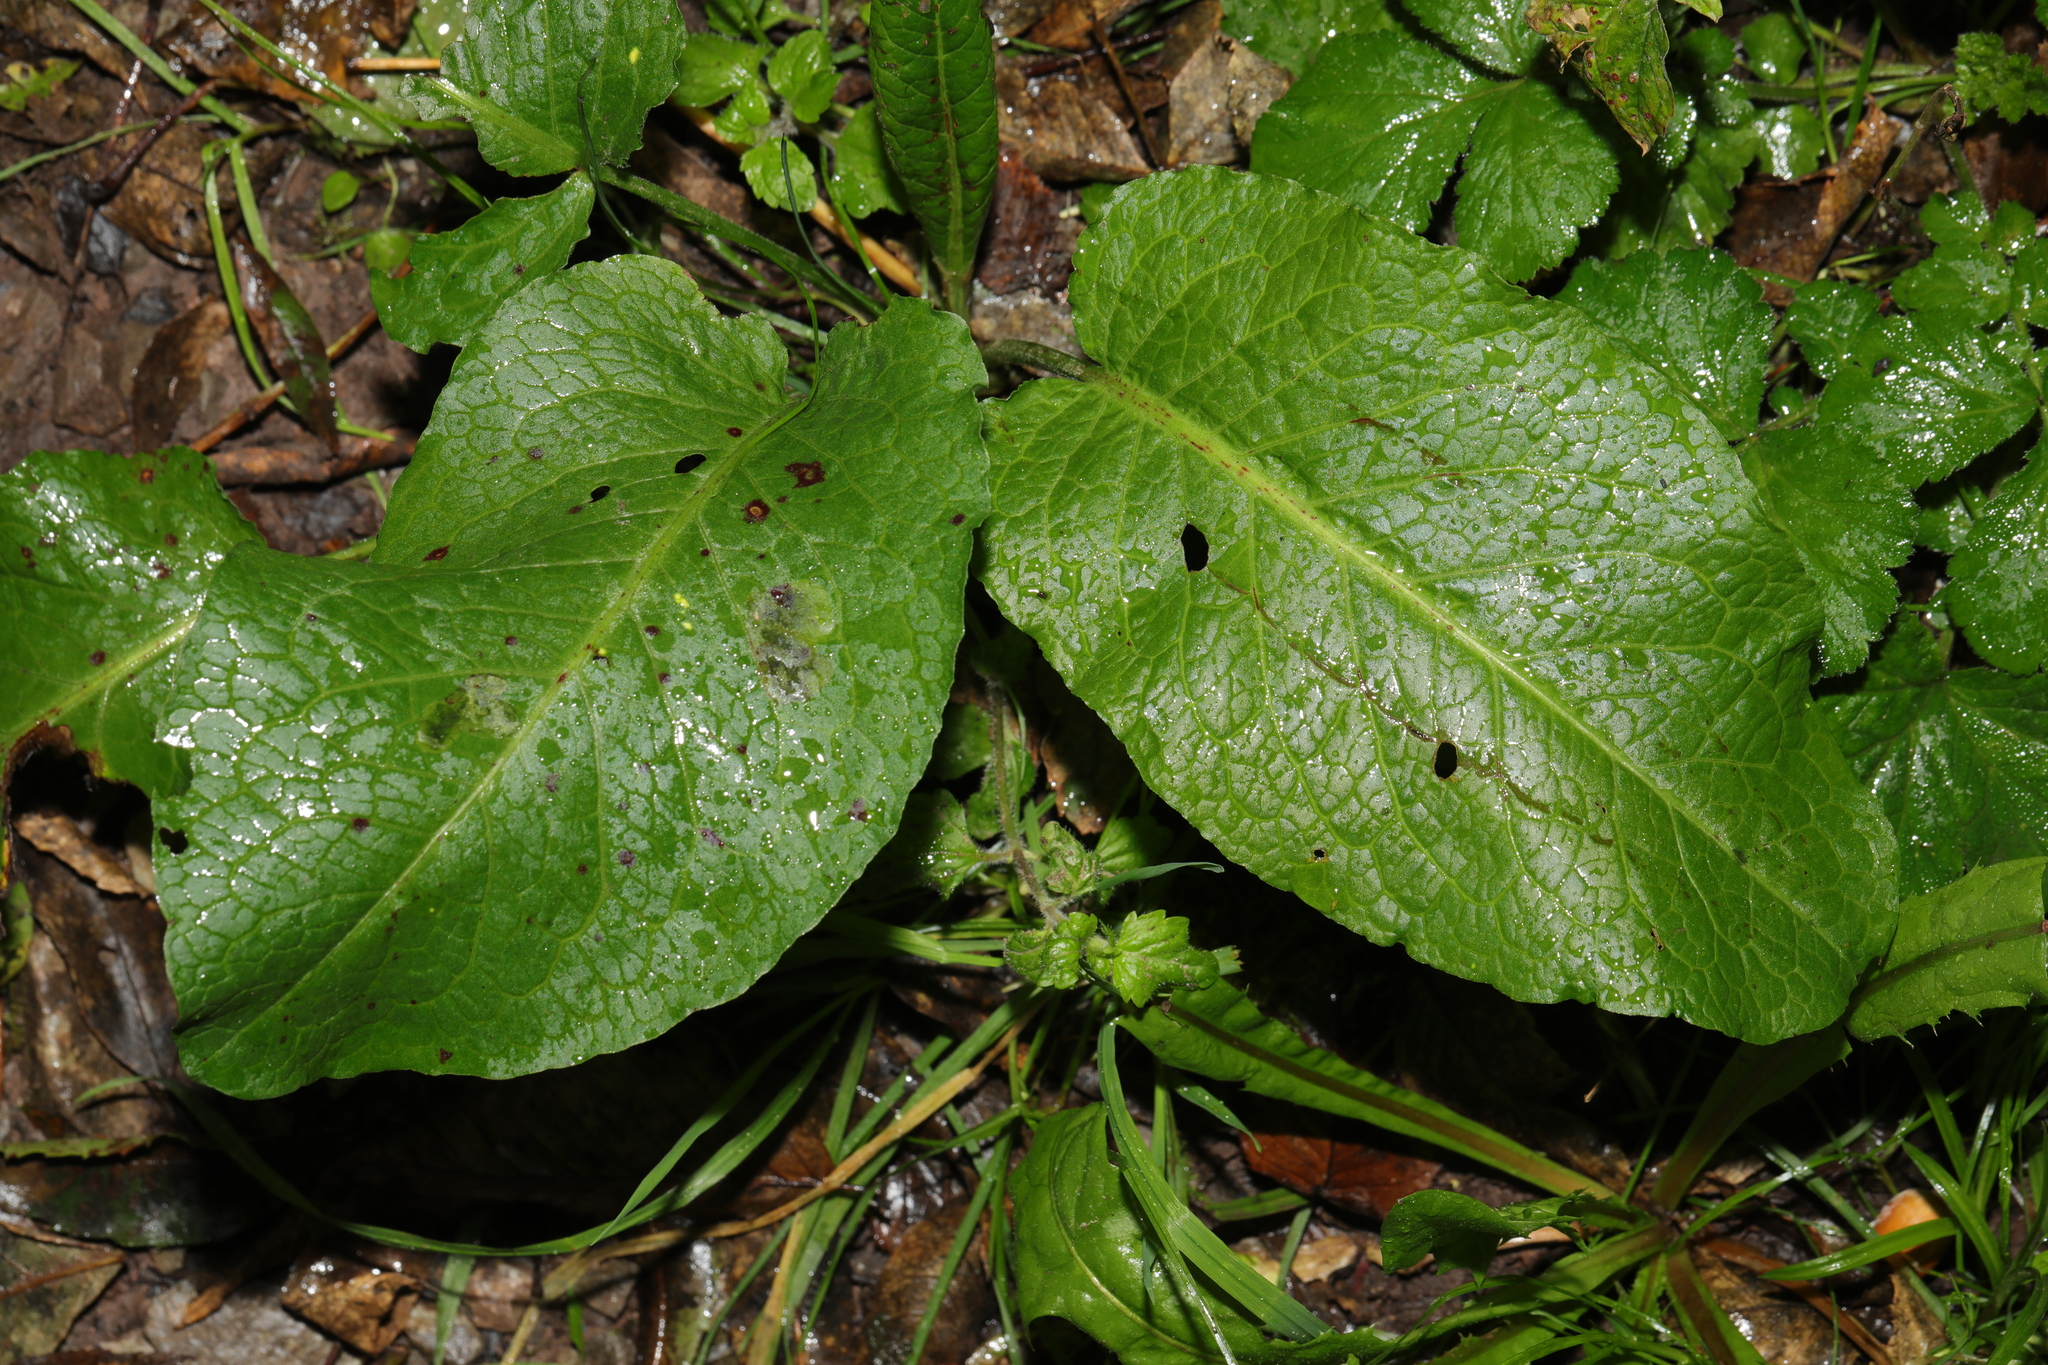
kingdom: Plantae
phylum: Tracheophyta
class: Magnoliopsida
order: Caryophyllales
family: Polygonaceae
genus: Rumex
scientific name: Rumex obtusifolius
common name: Bitter dock
